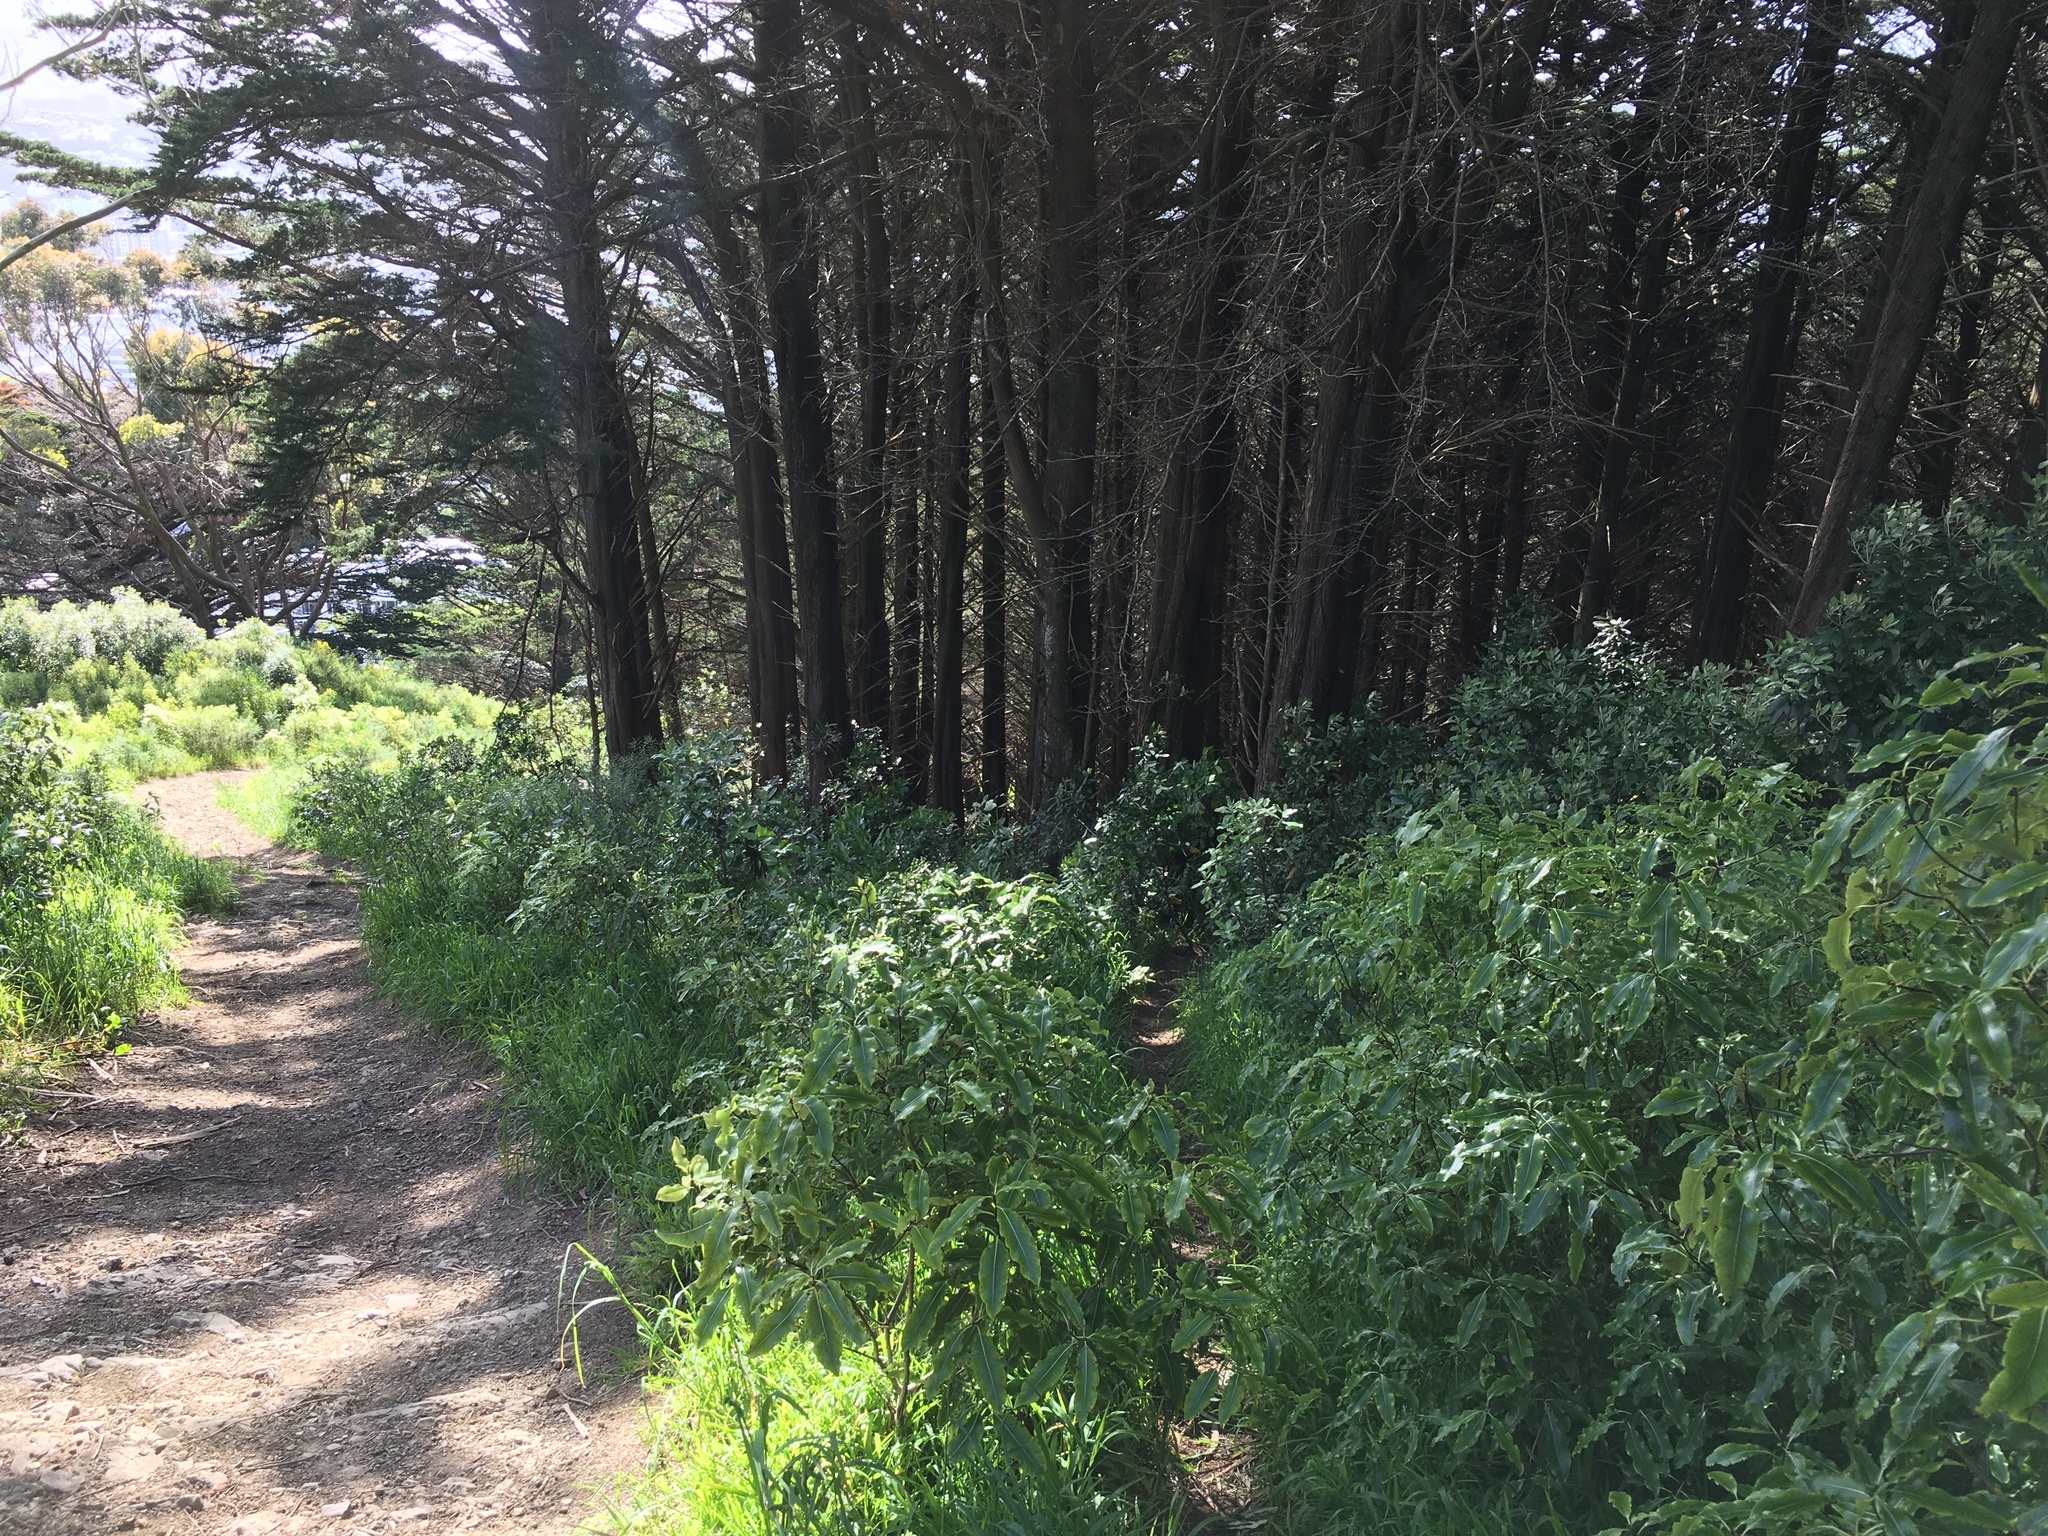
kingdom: Plantae
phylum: Tracheophyta
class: Magnoliopsida
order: Apiales
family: Pittosporaceae
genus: Pittosporum
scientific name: Pittosporum eugenioides
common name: Lemonwood
